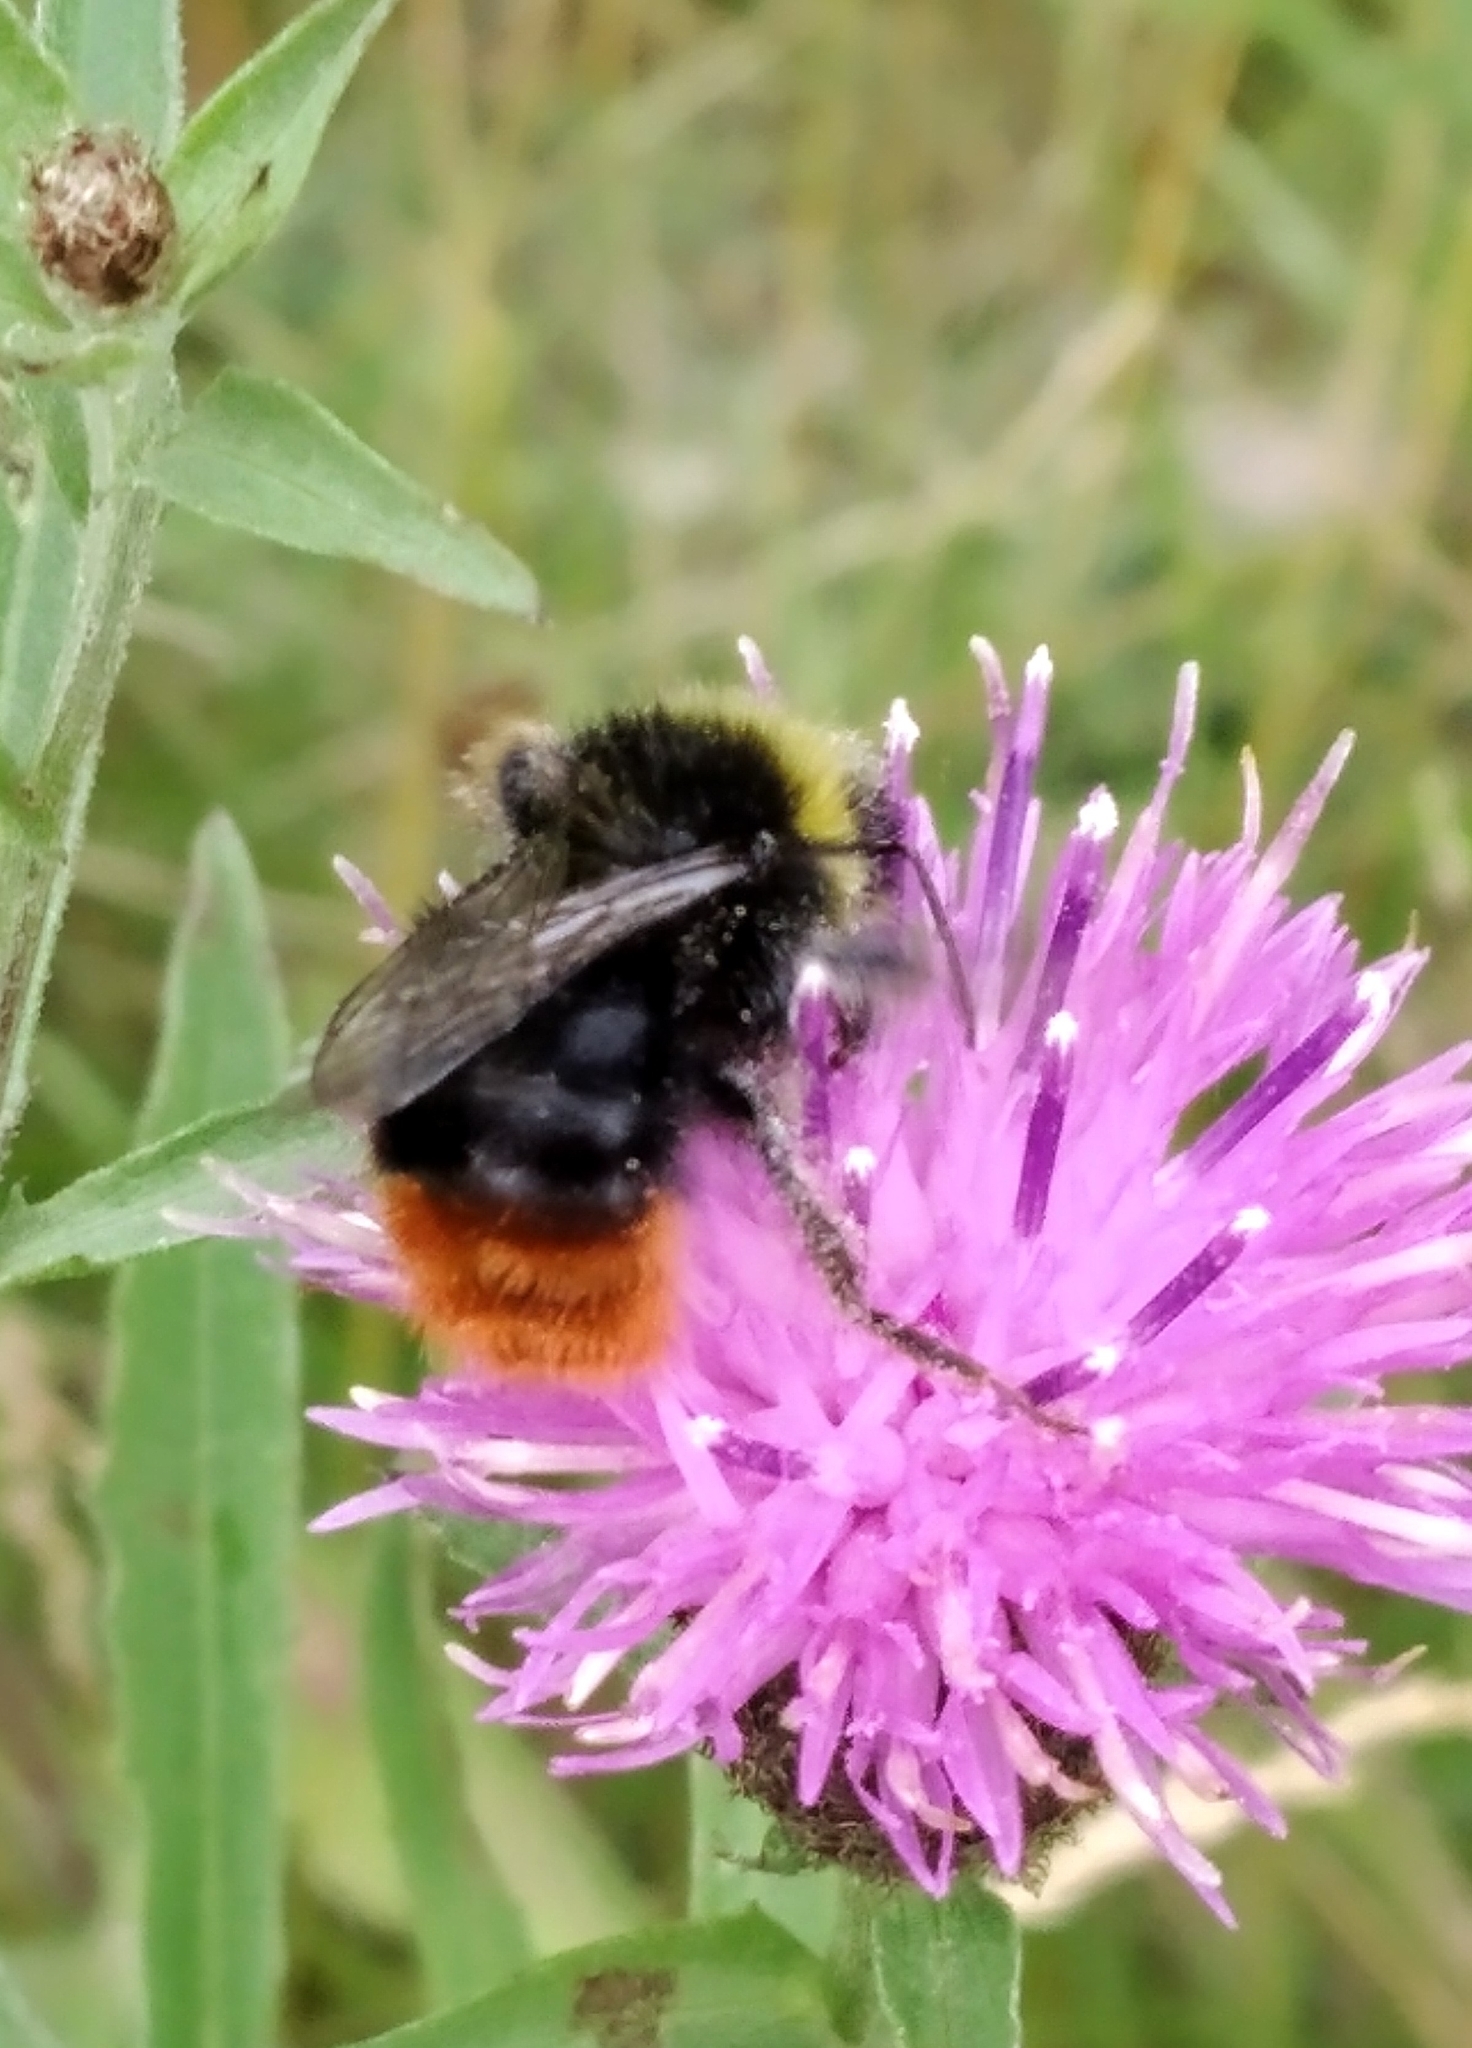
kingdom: Animalia
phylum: Arthropoda
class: Insecta
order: Hymenoptera
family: Apidae
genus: Bombus
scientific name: Bombus lapidarius
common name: Large red-tailed humble-bee
